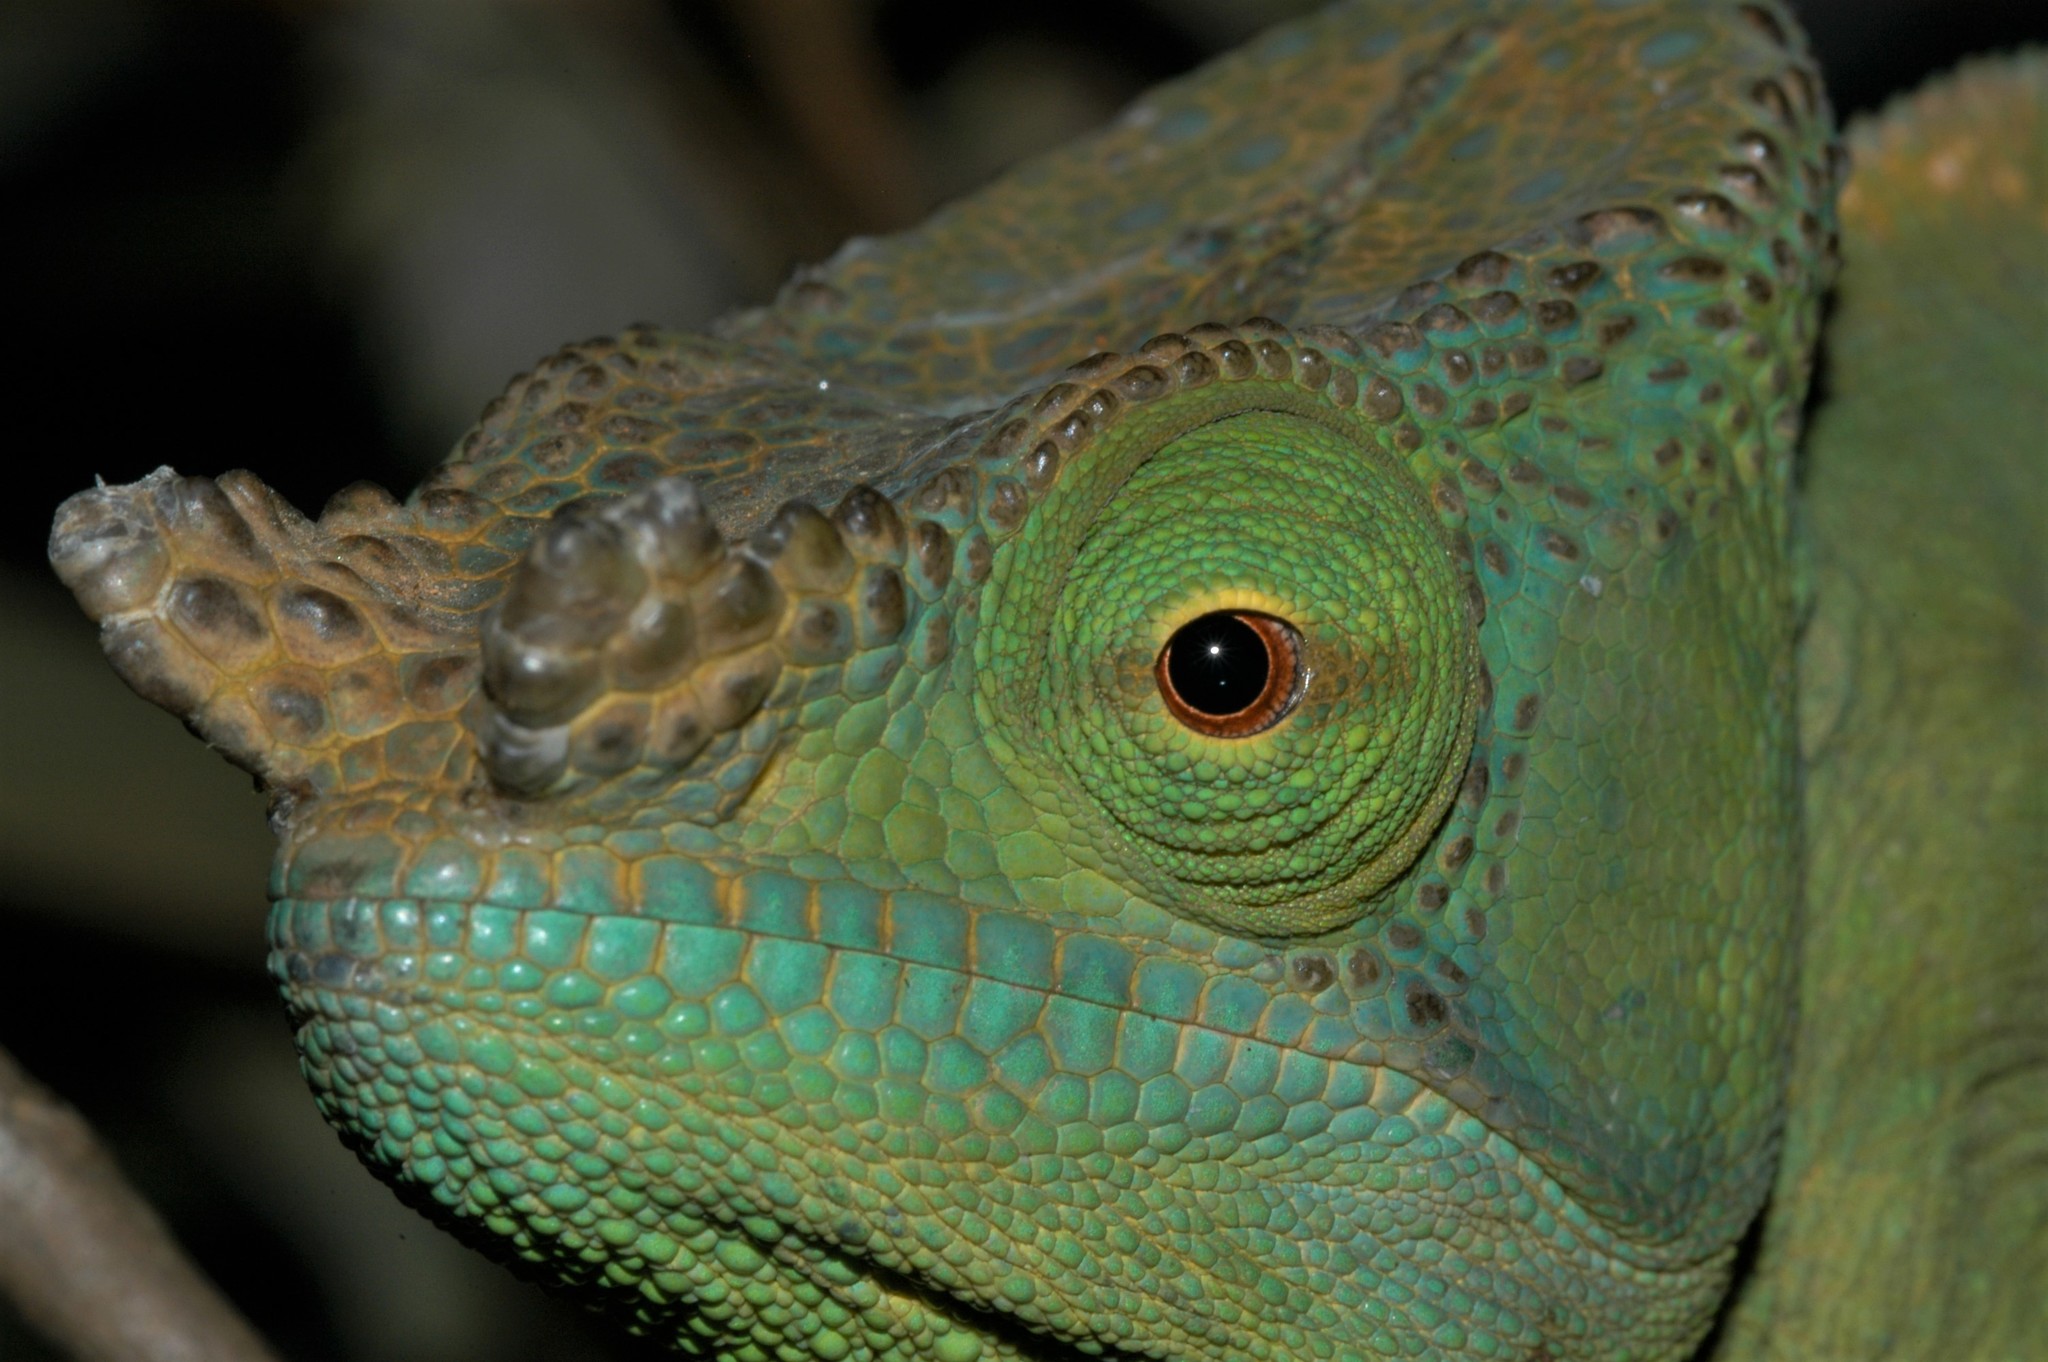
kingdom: Animalia
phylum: Chordata
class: Squamata
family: Chamaeleonidae
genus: Calumma
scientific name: Calumma parsonii
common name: Parson's chameleon
